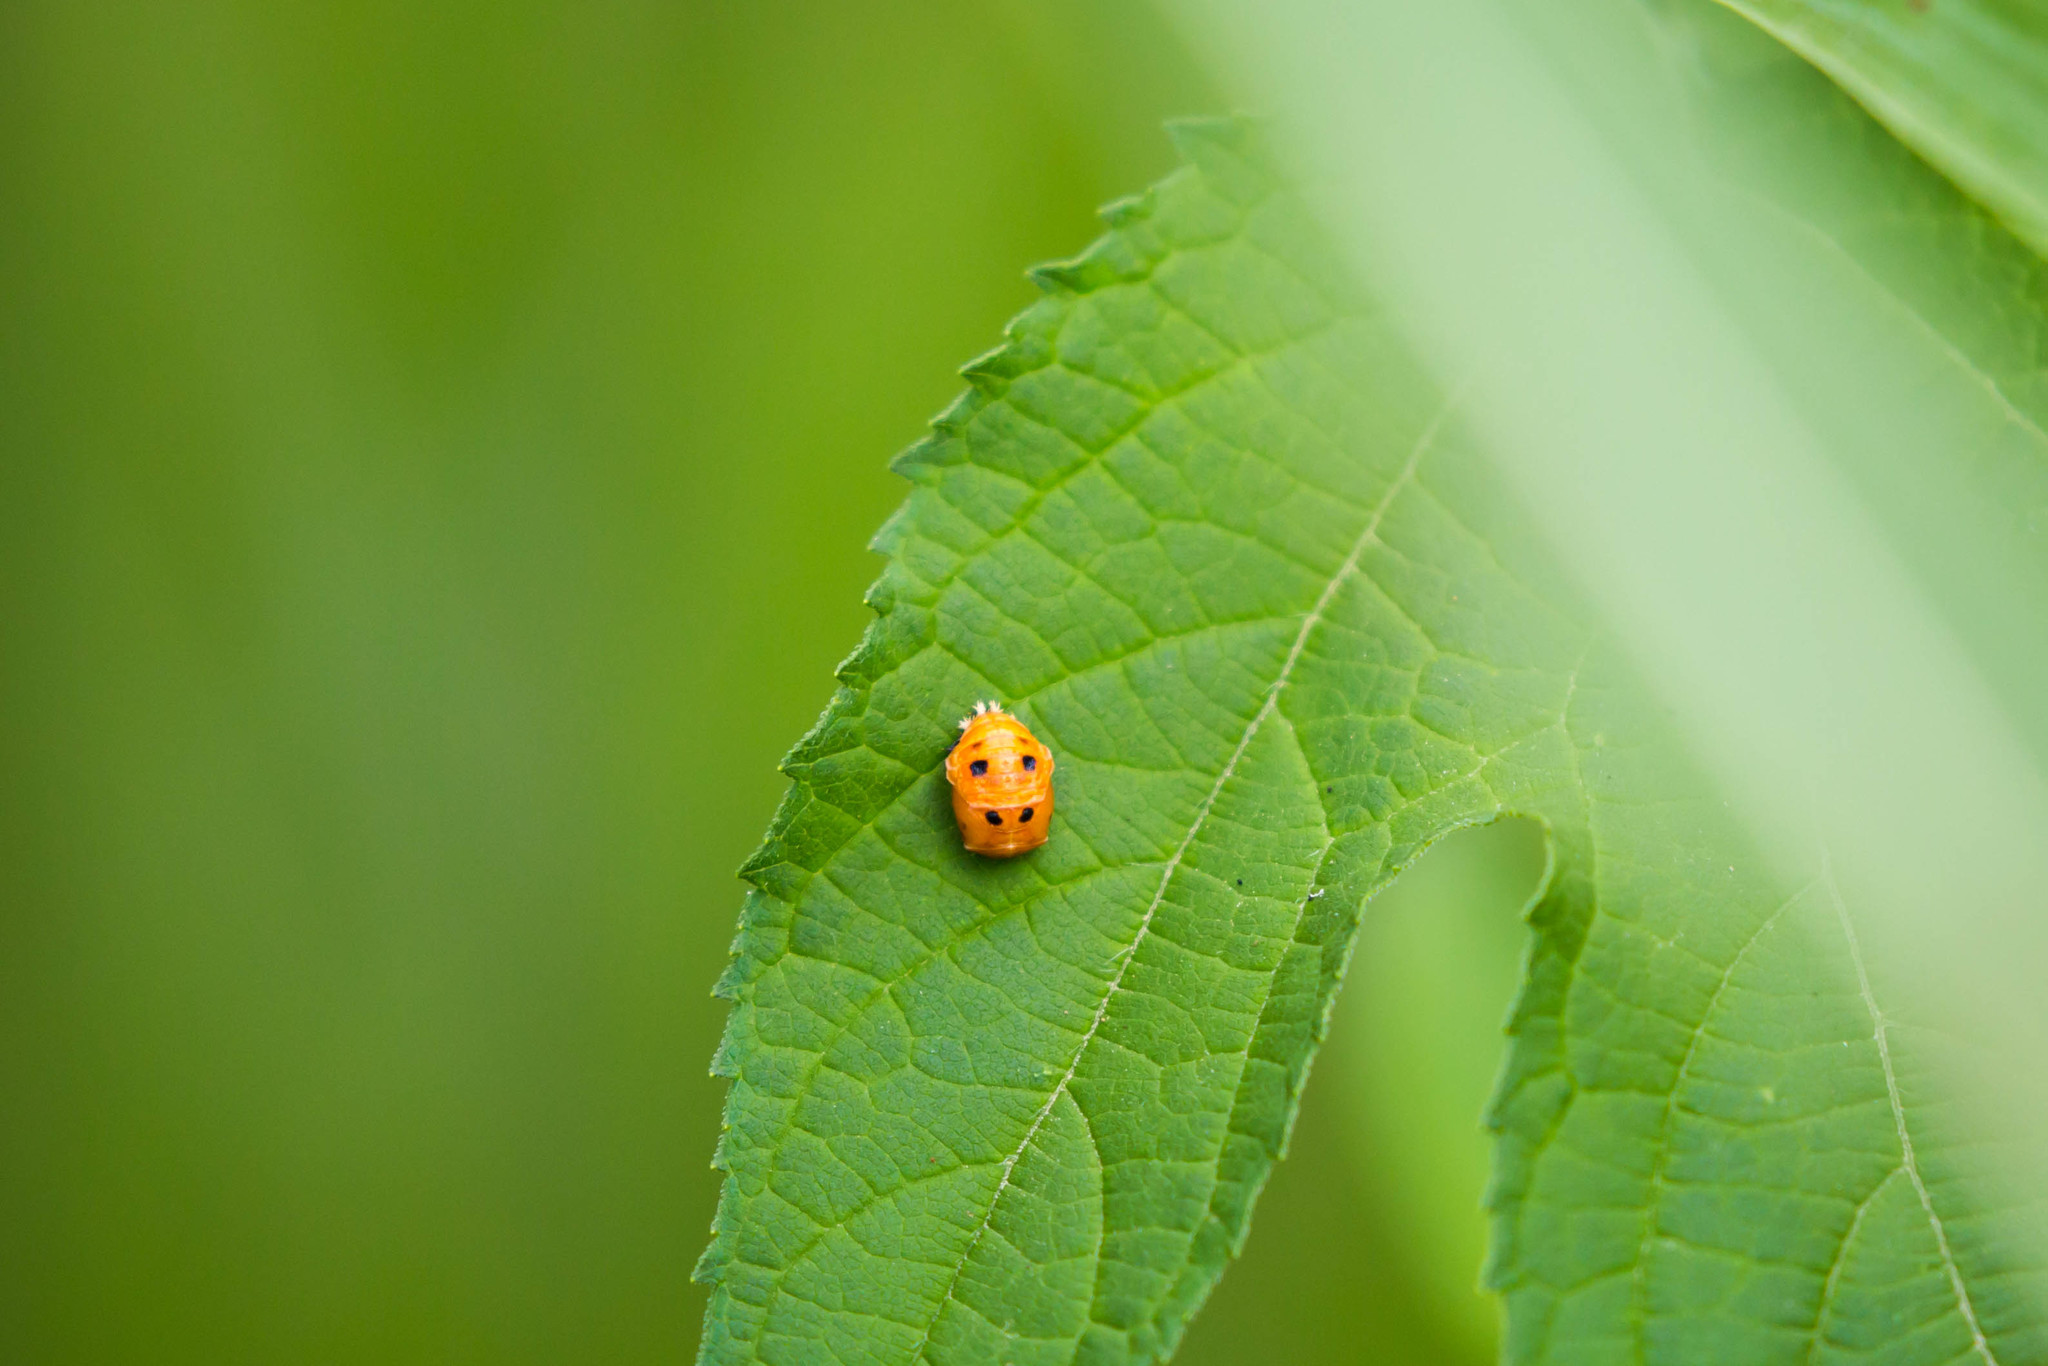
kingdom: Animalia
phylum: Arthropoda
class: Insecta
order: Coleoptera
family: Coccinellidae
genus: Harmonia
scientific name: Harmonia axyridis
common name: Harlequin ladybird
